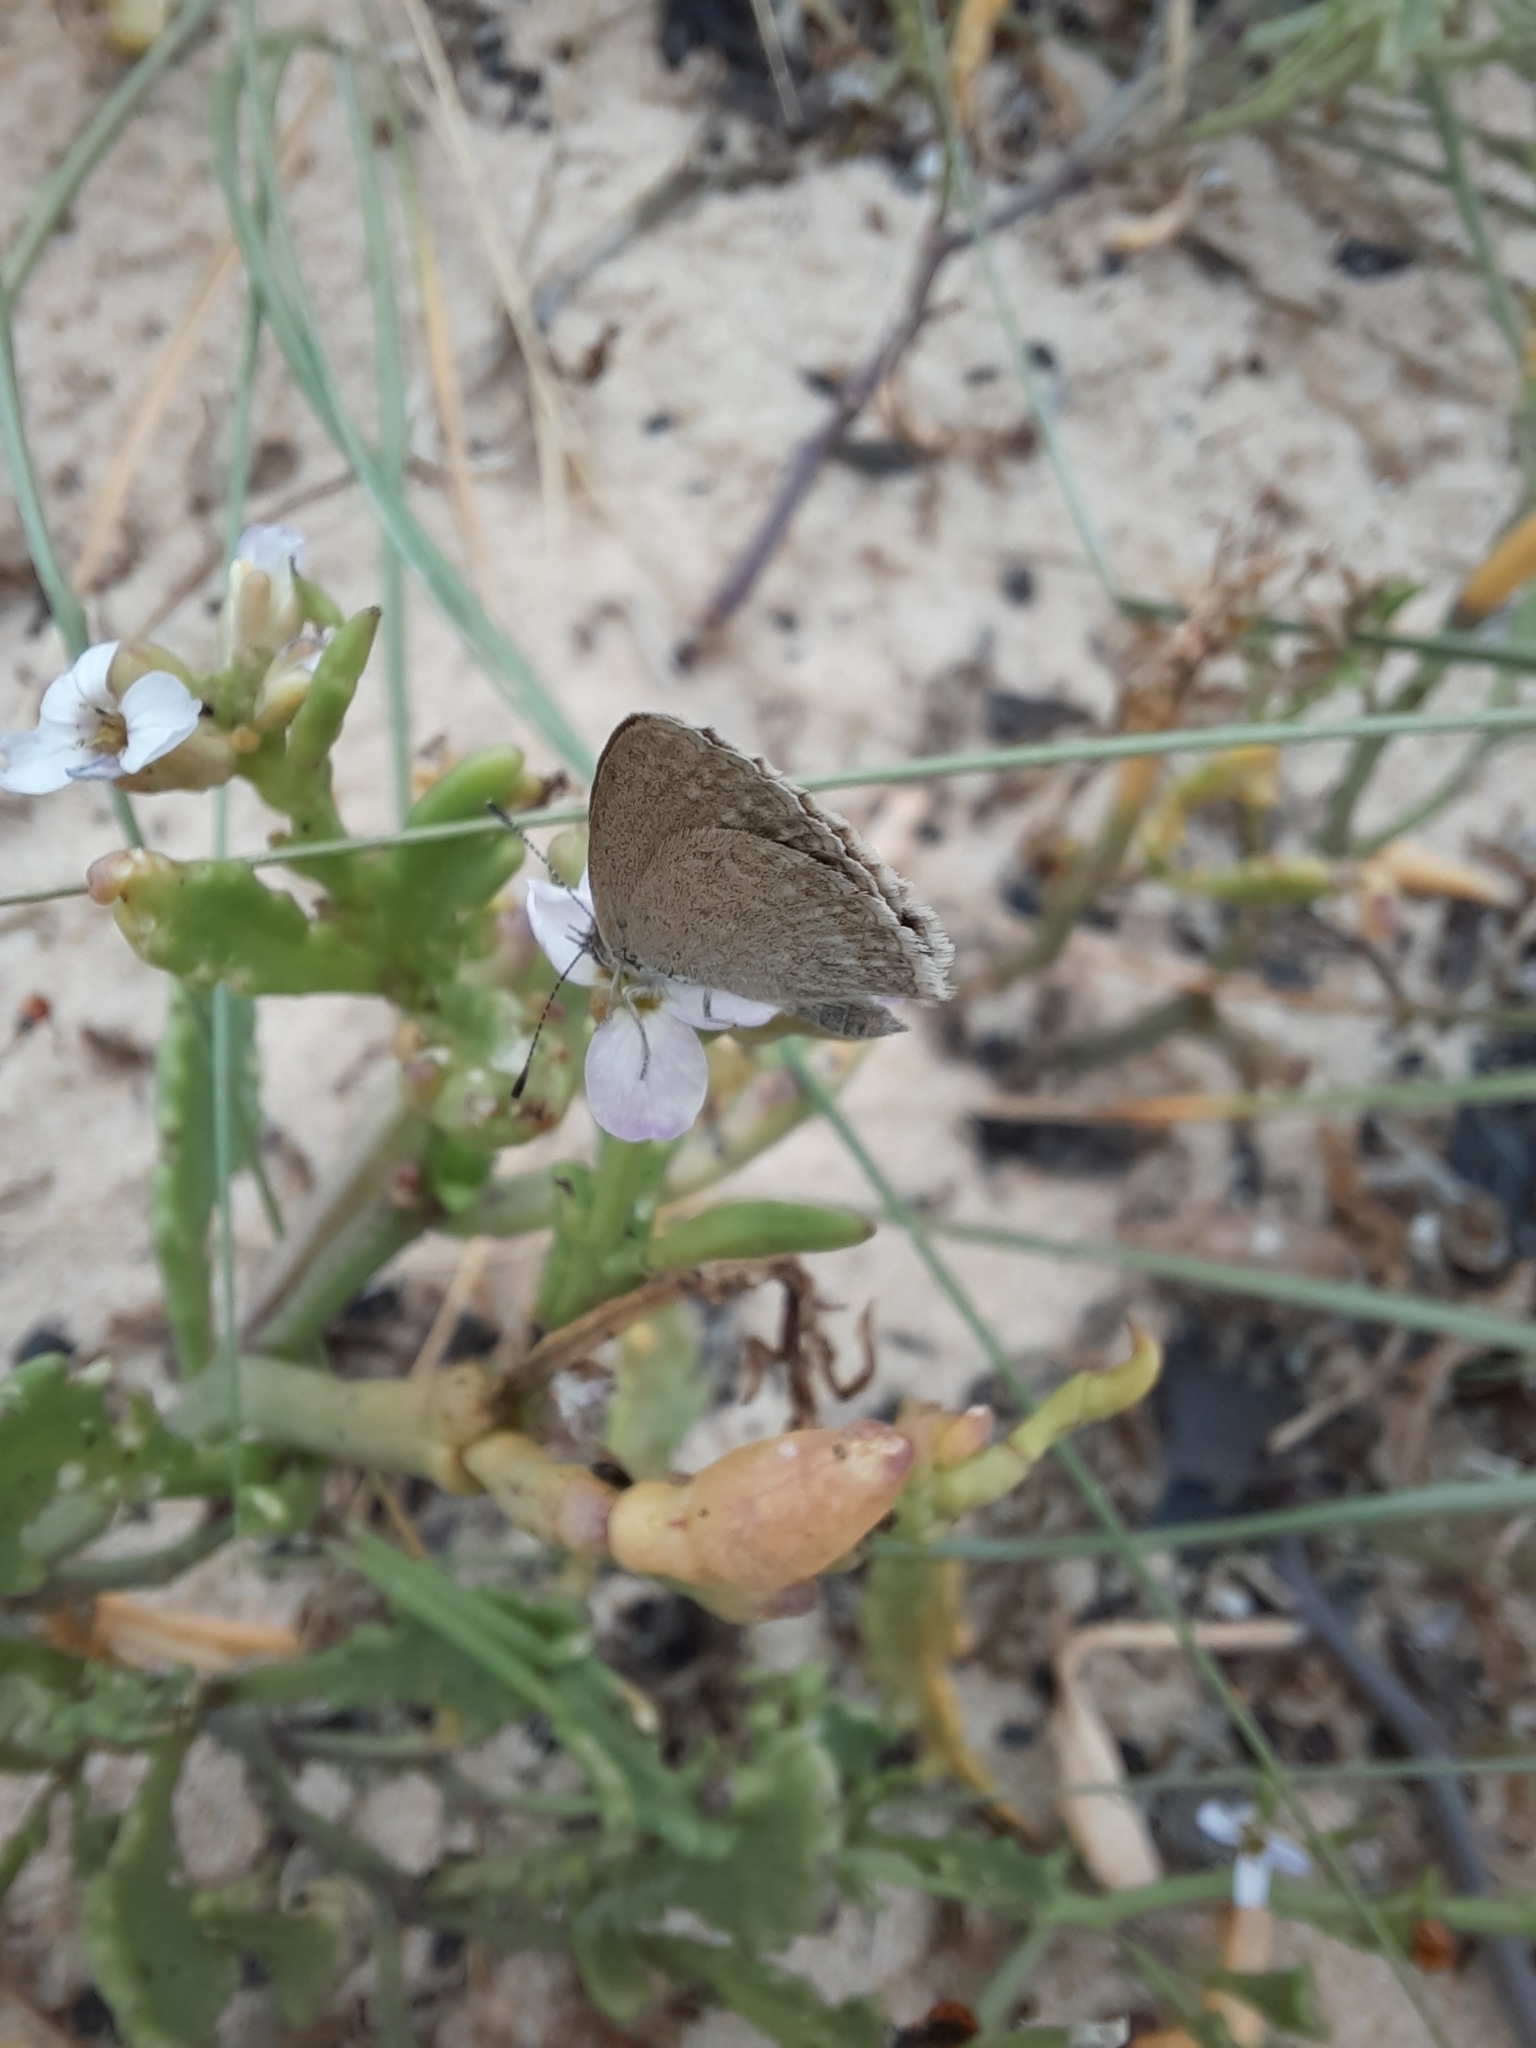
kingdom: Animalia
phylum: Arthropoda
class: Insecta
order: Lepidoptera
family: Lycaenidae
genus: Zizina
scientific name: Zizina labradus
